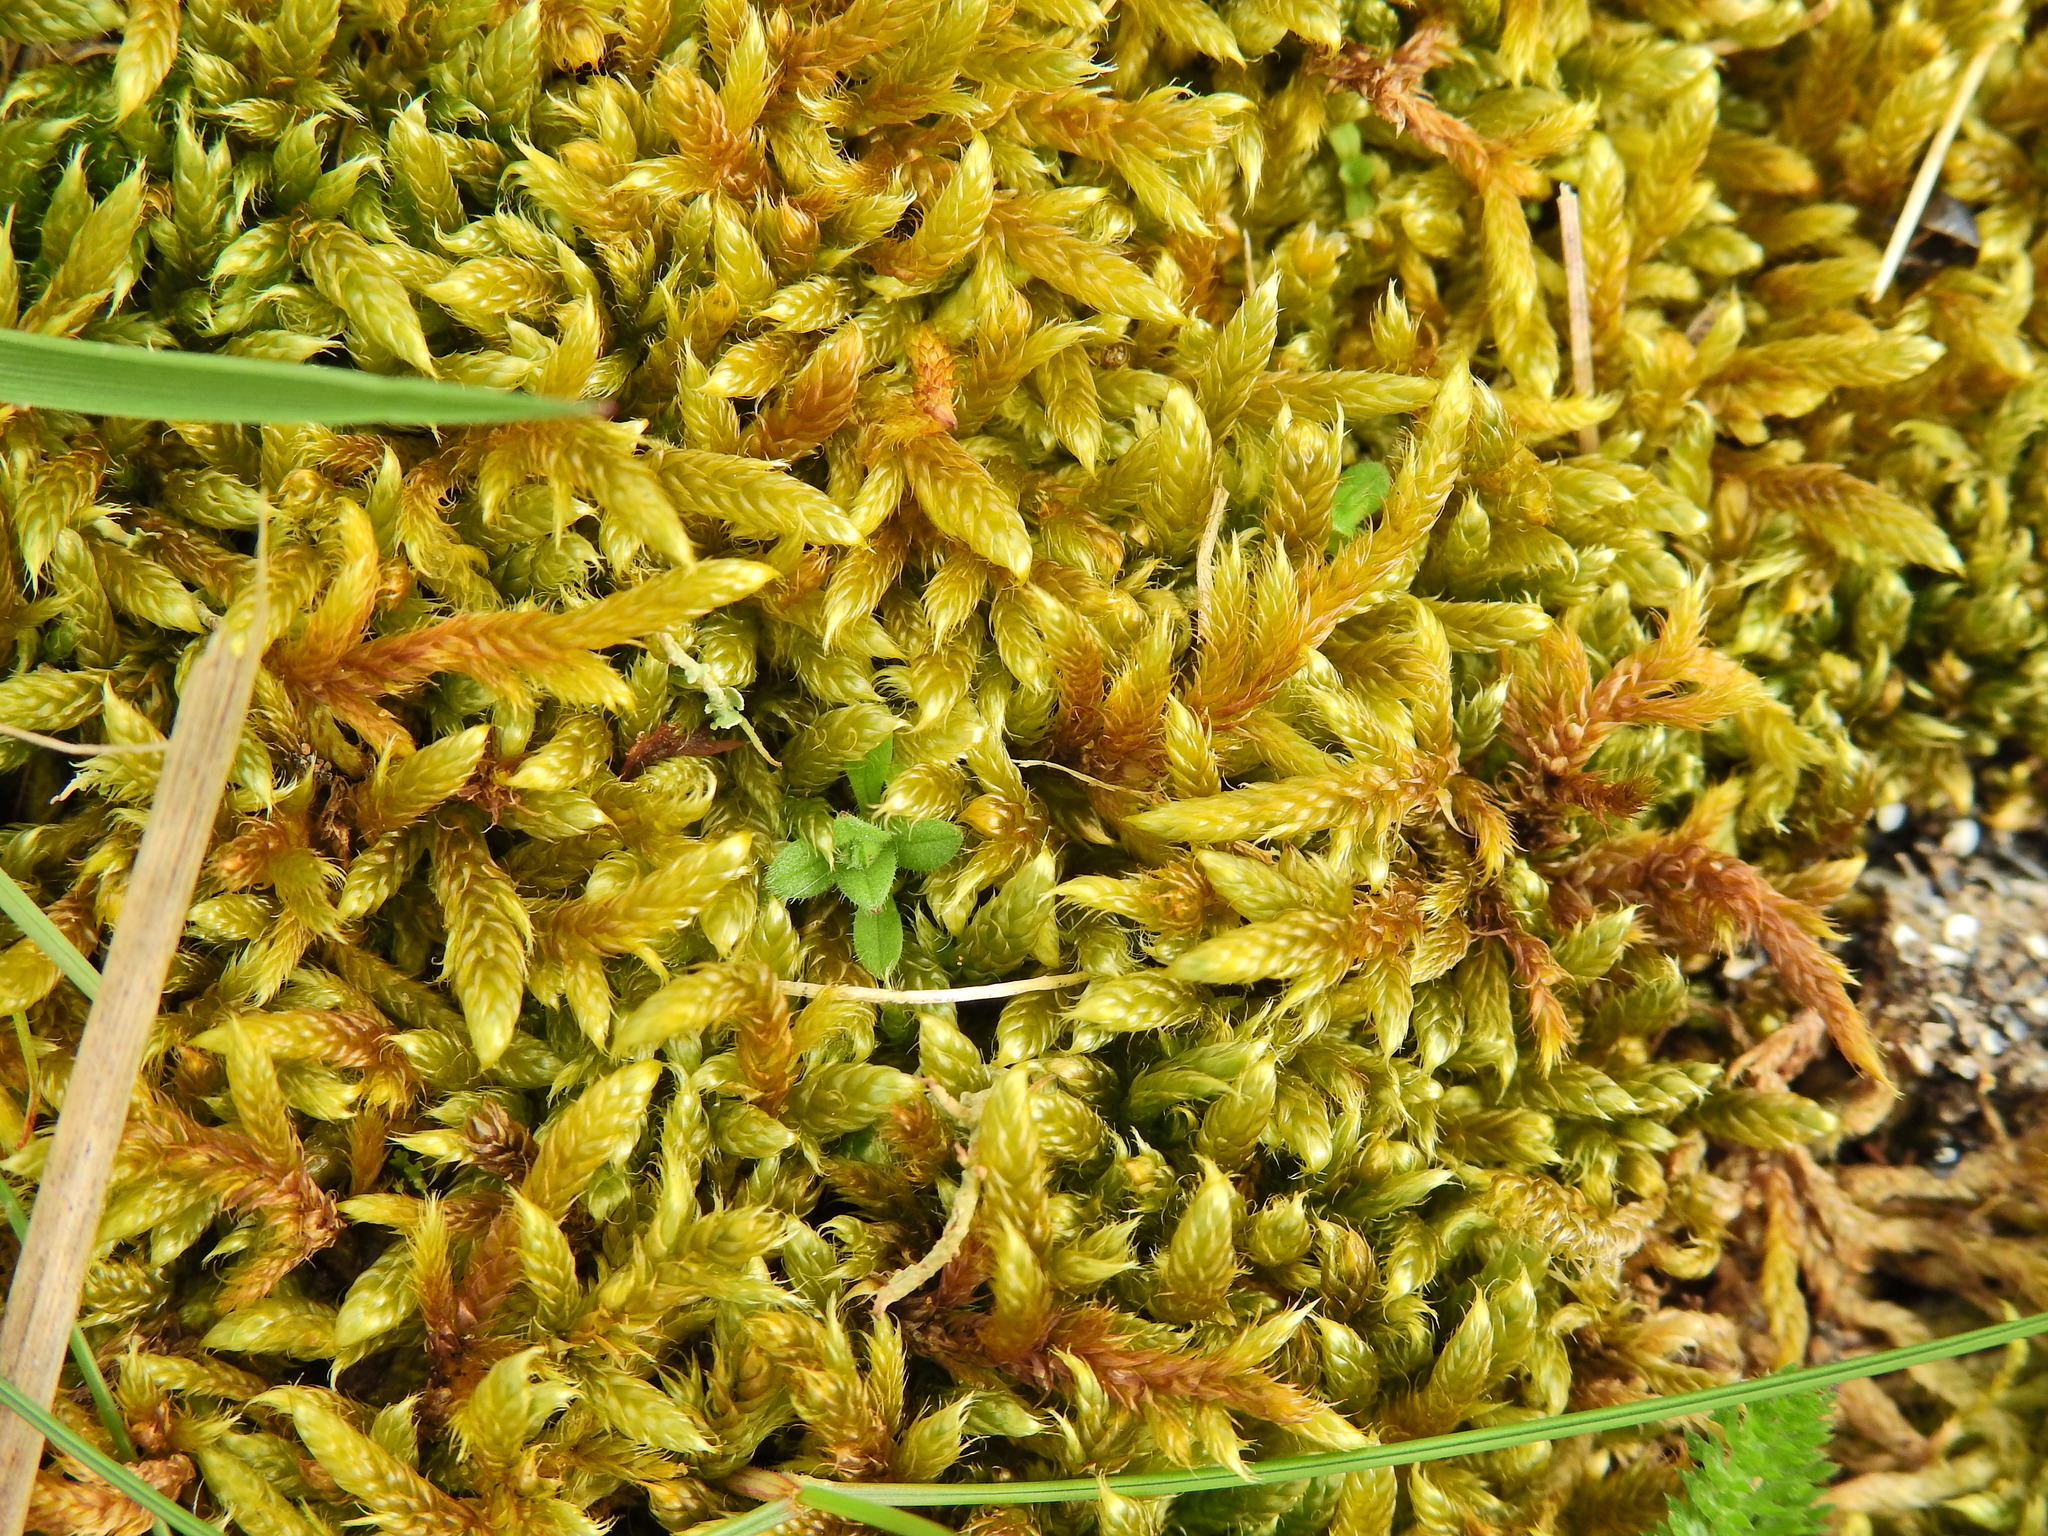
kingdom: Plantae
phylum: Bryophyta
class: Bryopsida
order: Hypnales
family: Hypnaceae
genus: Hypnum
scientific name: Hypnum cupressiforme
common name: Cypress-leaved plait-moss
